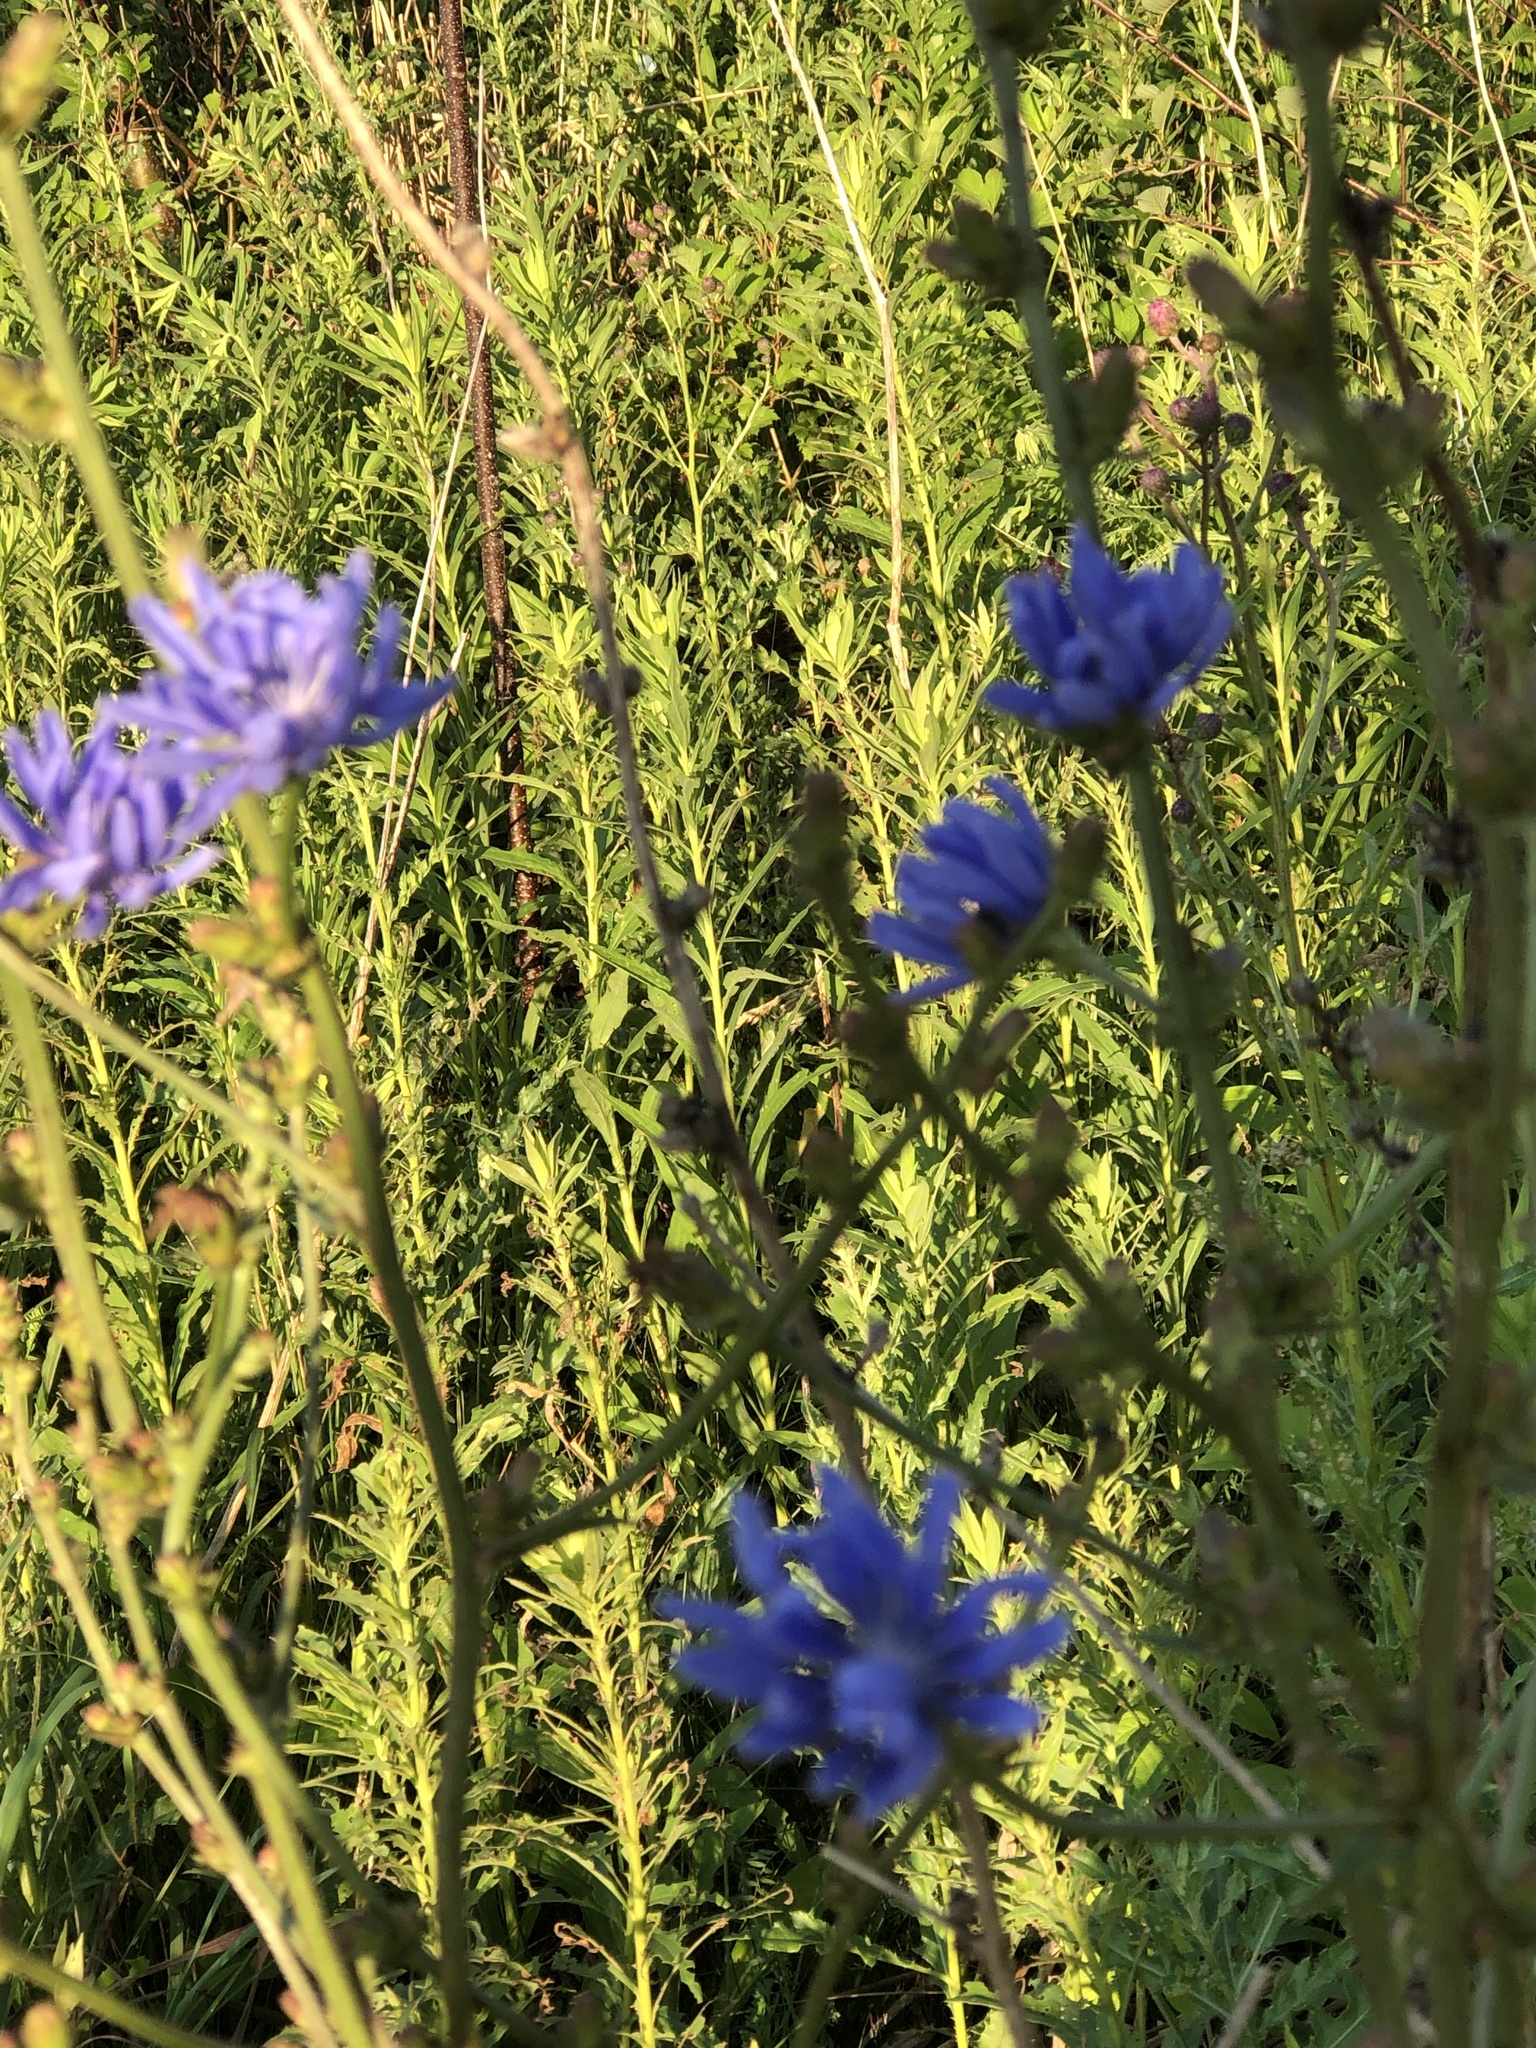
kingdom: Plantae
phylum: Tracheophyta
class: Magnoliopsida
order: Asterales
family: Asteraceae
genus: Cichorium
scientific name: Cichorium intybus
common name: Chicory
